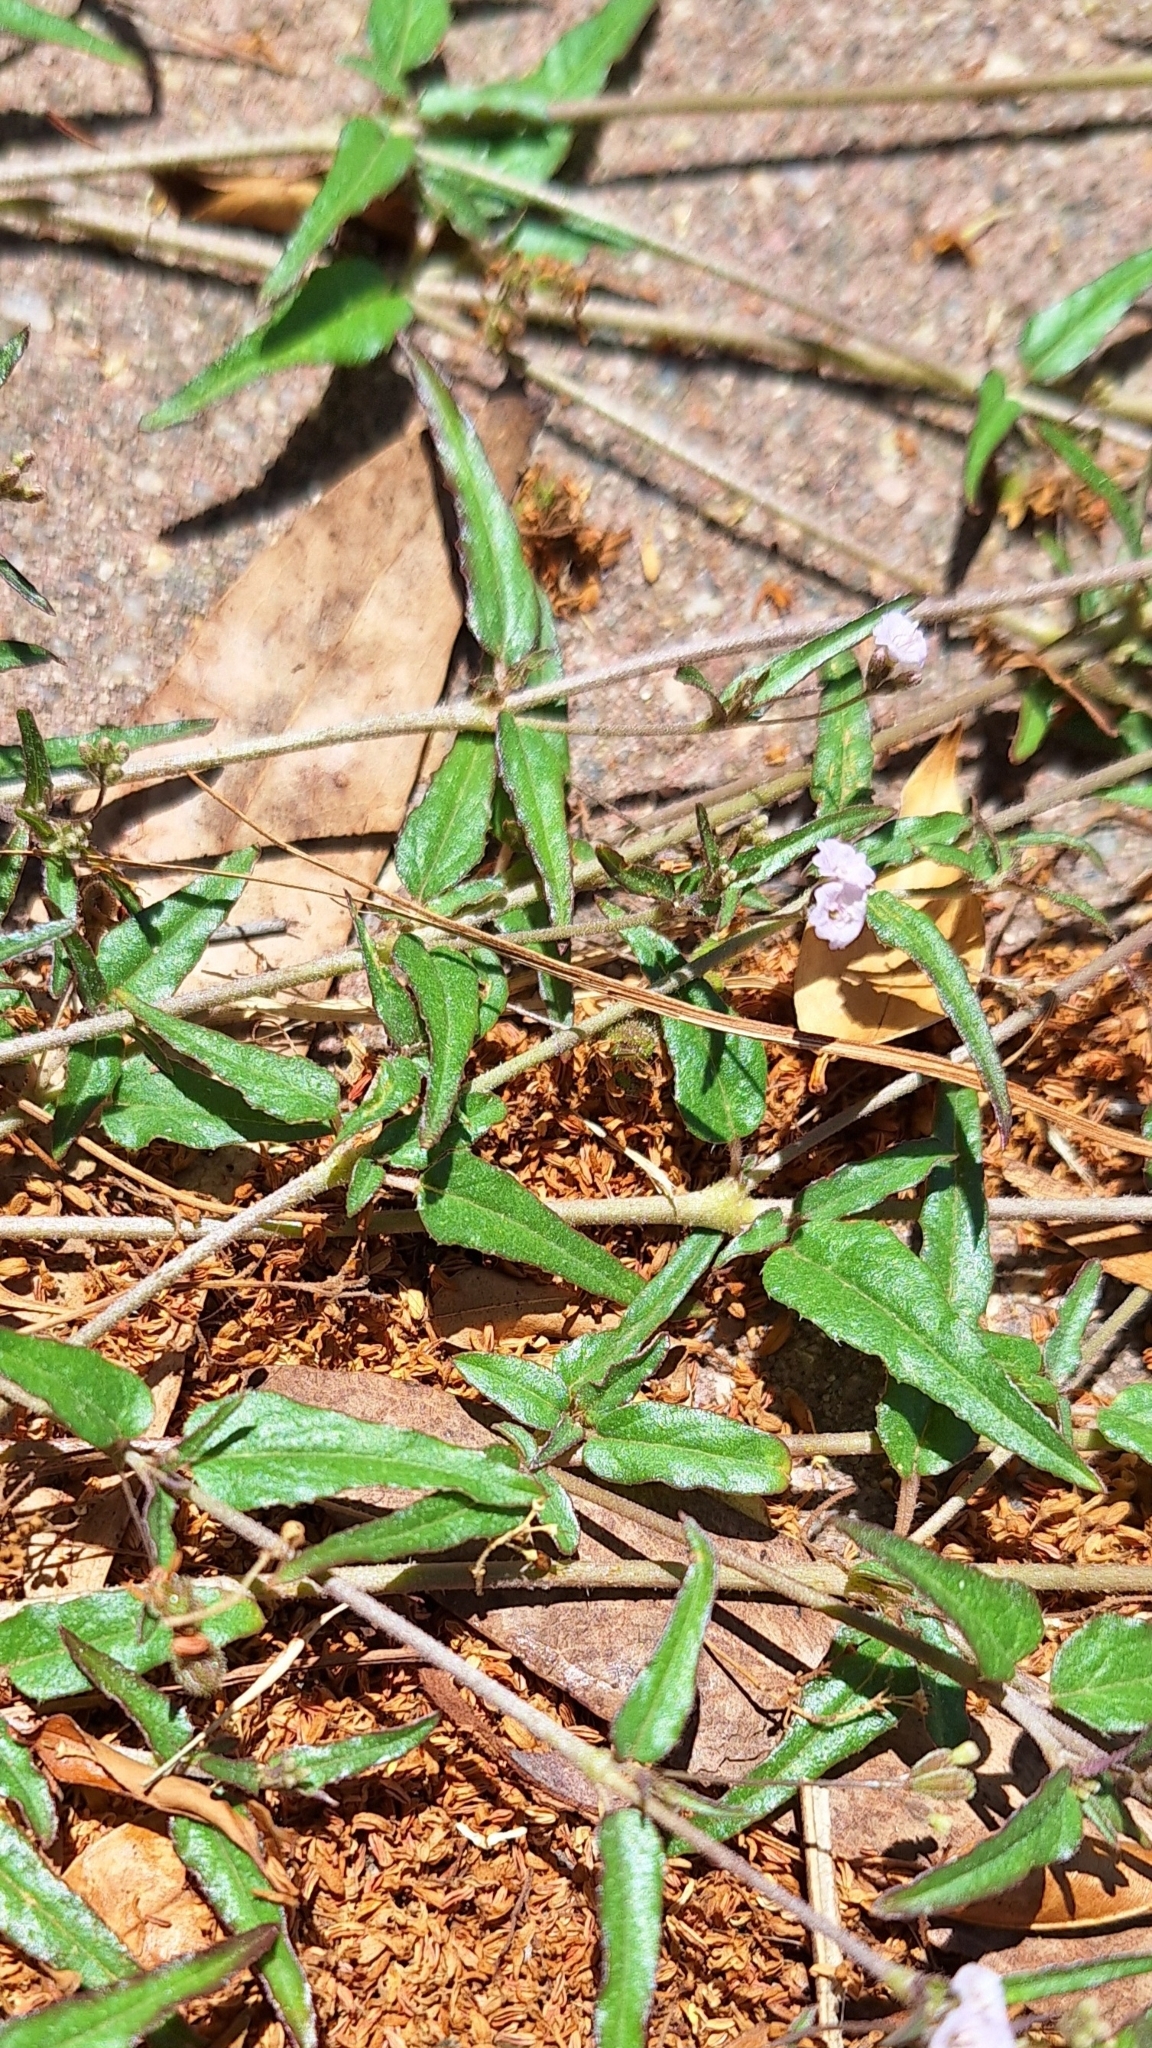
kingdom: Plantae
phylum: Tracheophyta
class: Magnoliopsida
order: Caryophyllales
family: Nyctaginaceae
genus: Boerhavia
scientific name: Boerhavia dominii
